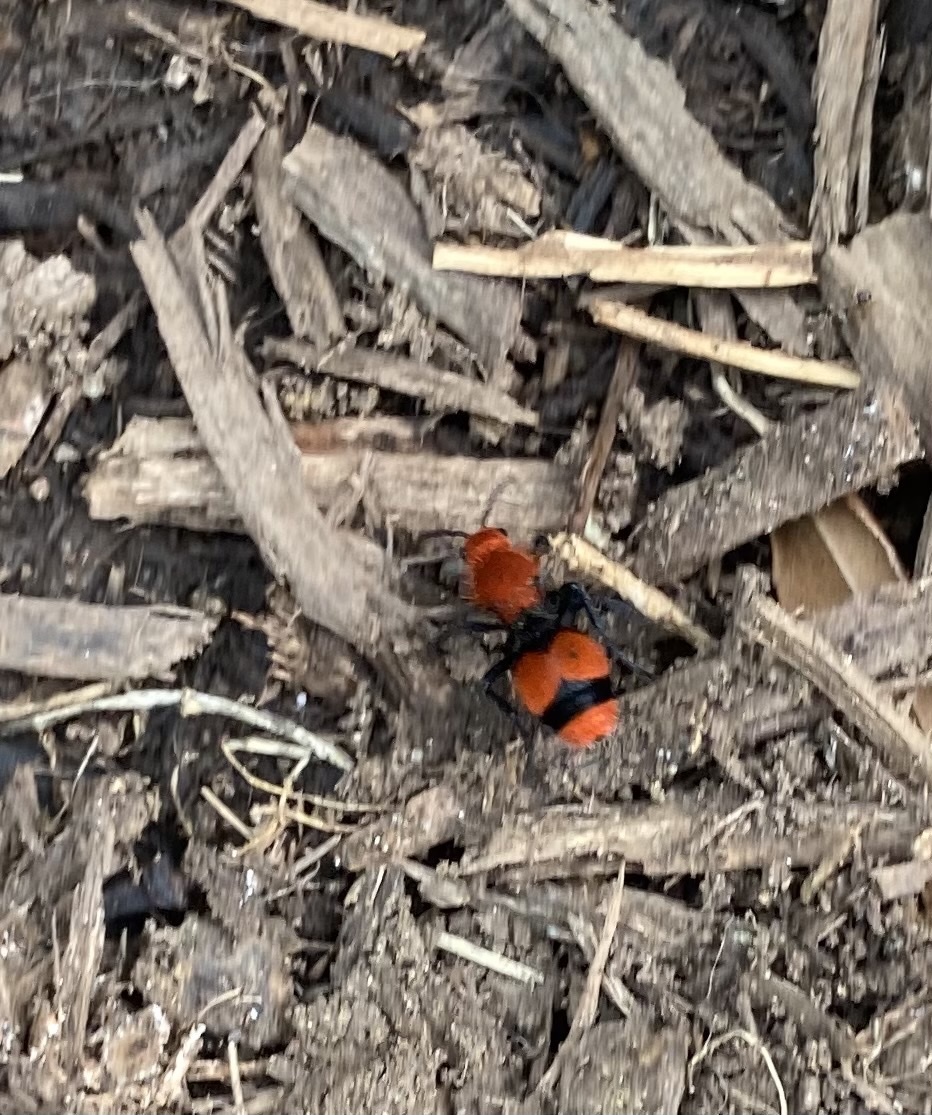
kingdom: Animalia
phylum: Arthropoda
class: Insecta
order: Hymenoptera
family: Mutillidae
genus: Dasymutilla
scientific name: Dasymutilla occidentalis
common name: Common eastern velvet ant
